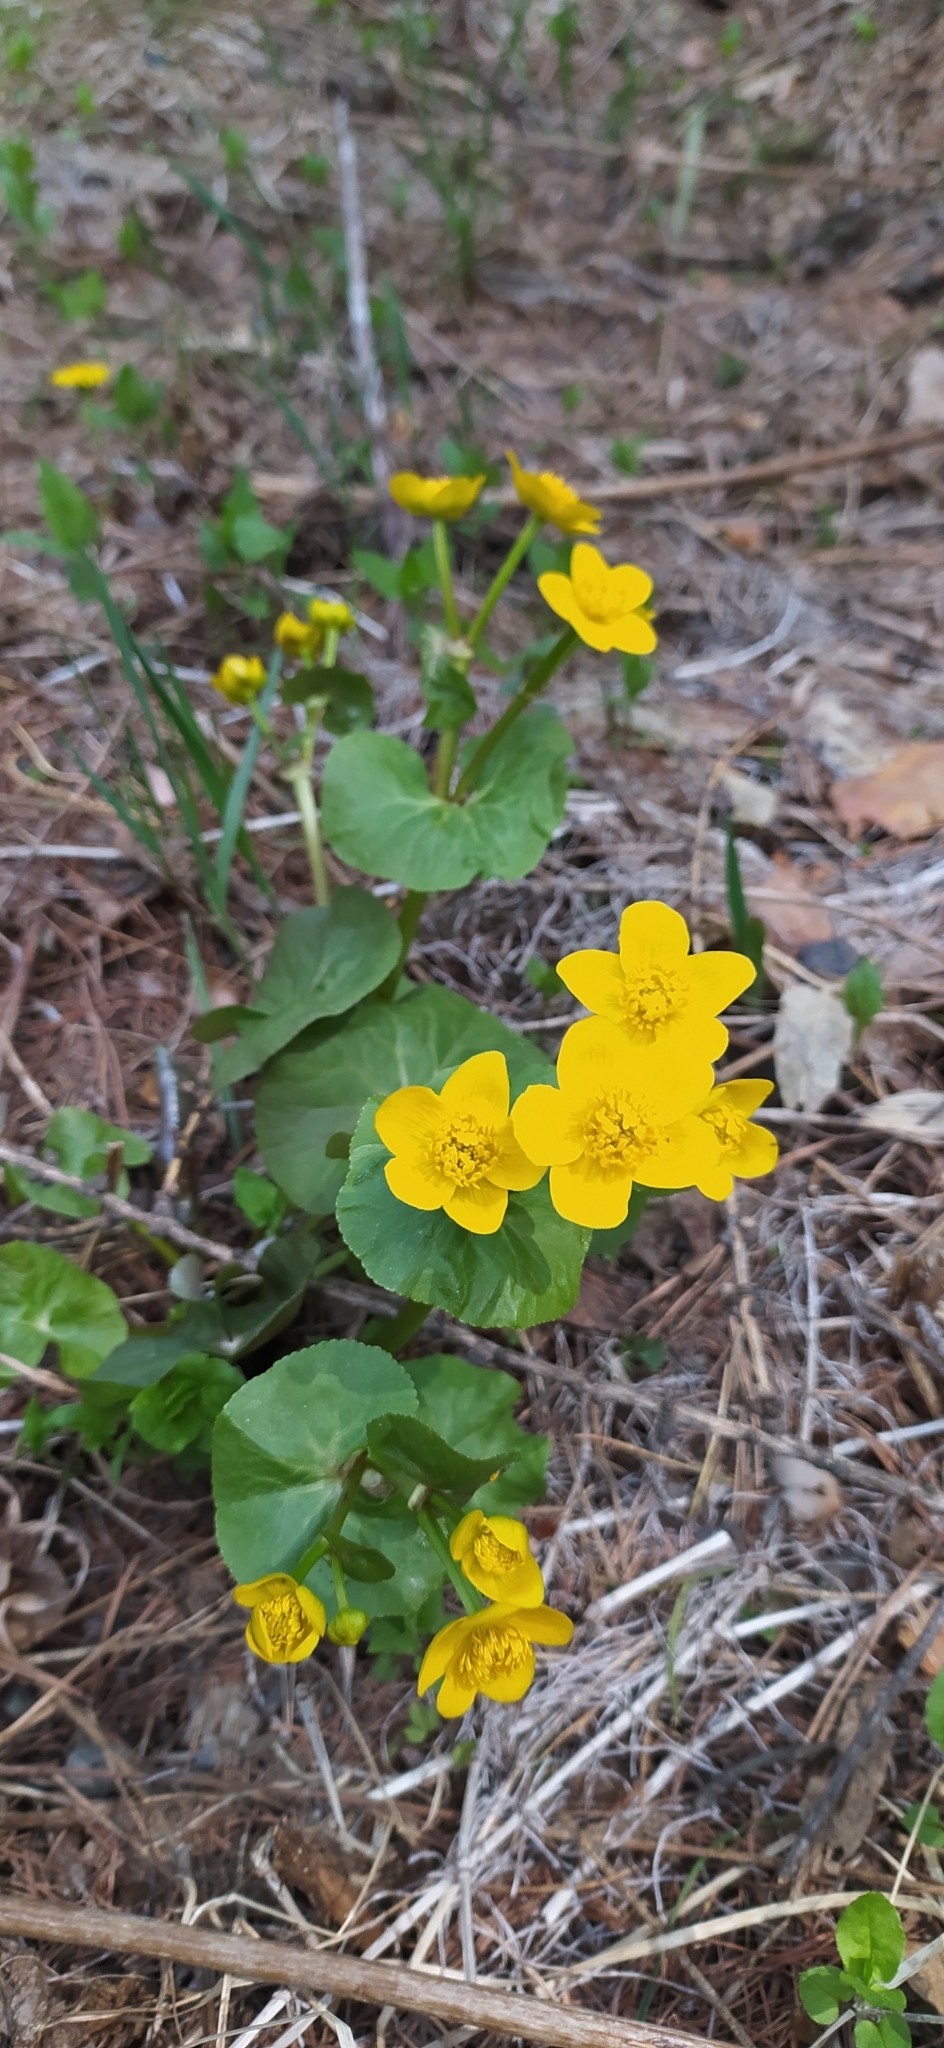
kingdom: Plantae
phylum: Tracheophyta
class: Magnoliopsida
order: Ranunculales
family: Ranunculaceae
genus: Caltha
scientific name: Caltha palustris
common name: Marsh marigold
